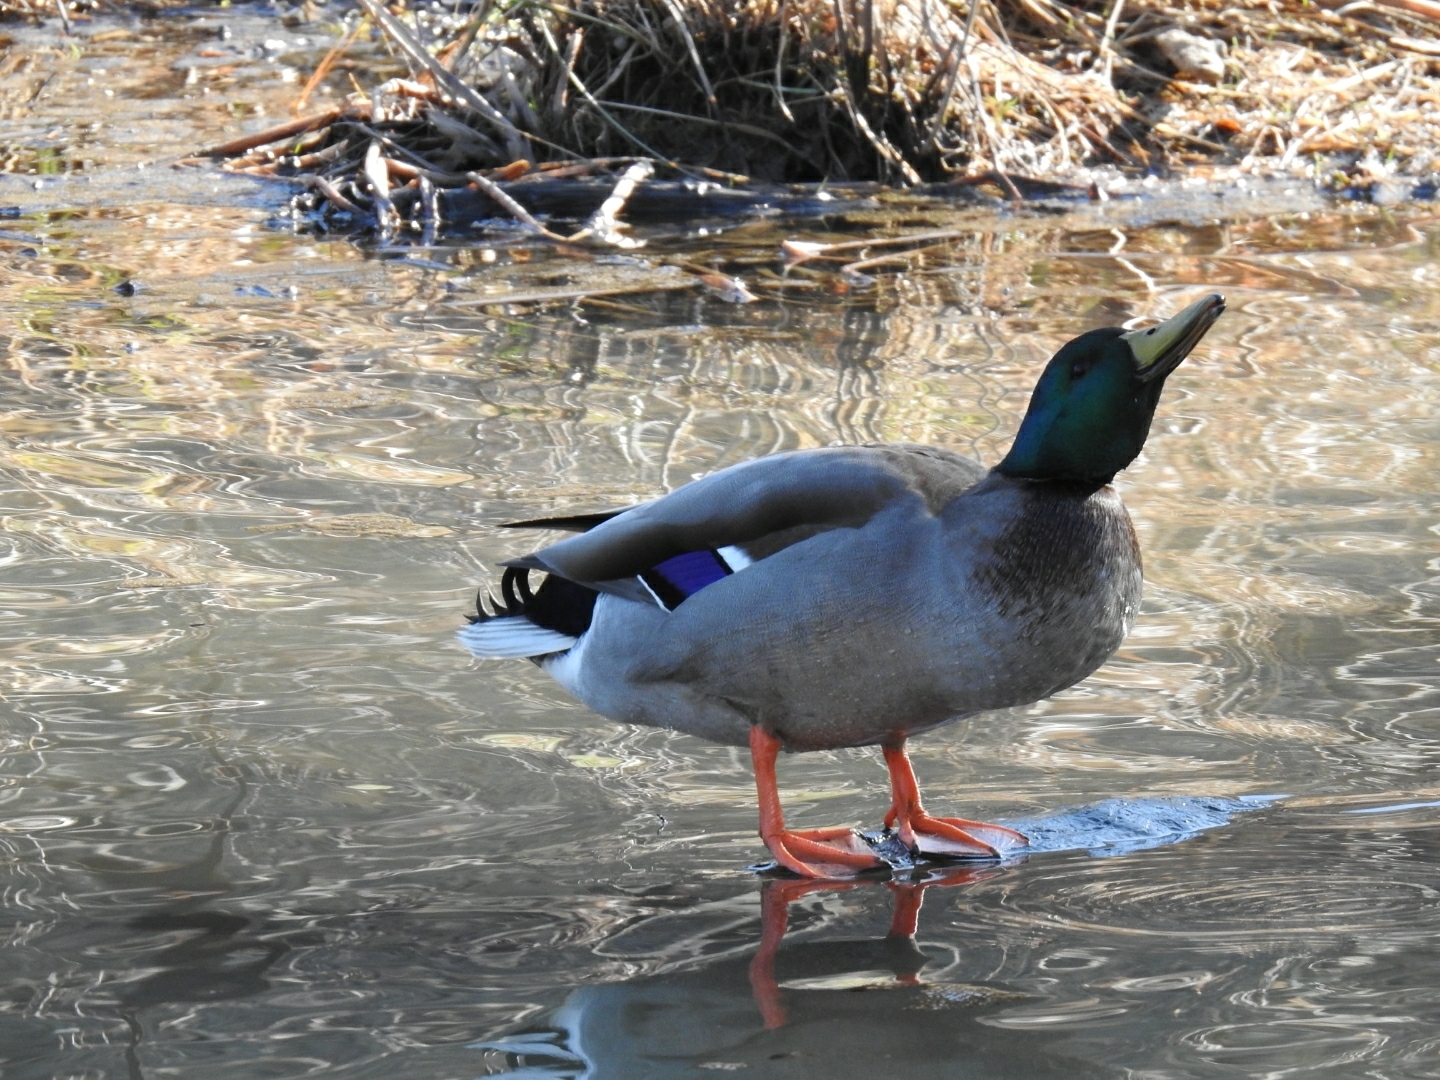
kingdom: Animalia
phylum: Chordata
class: Aves
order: Anseriformes
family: Anatidae
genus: Anas
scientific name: Anas platyrhynchos
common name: Mallard
